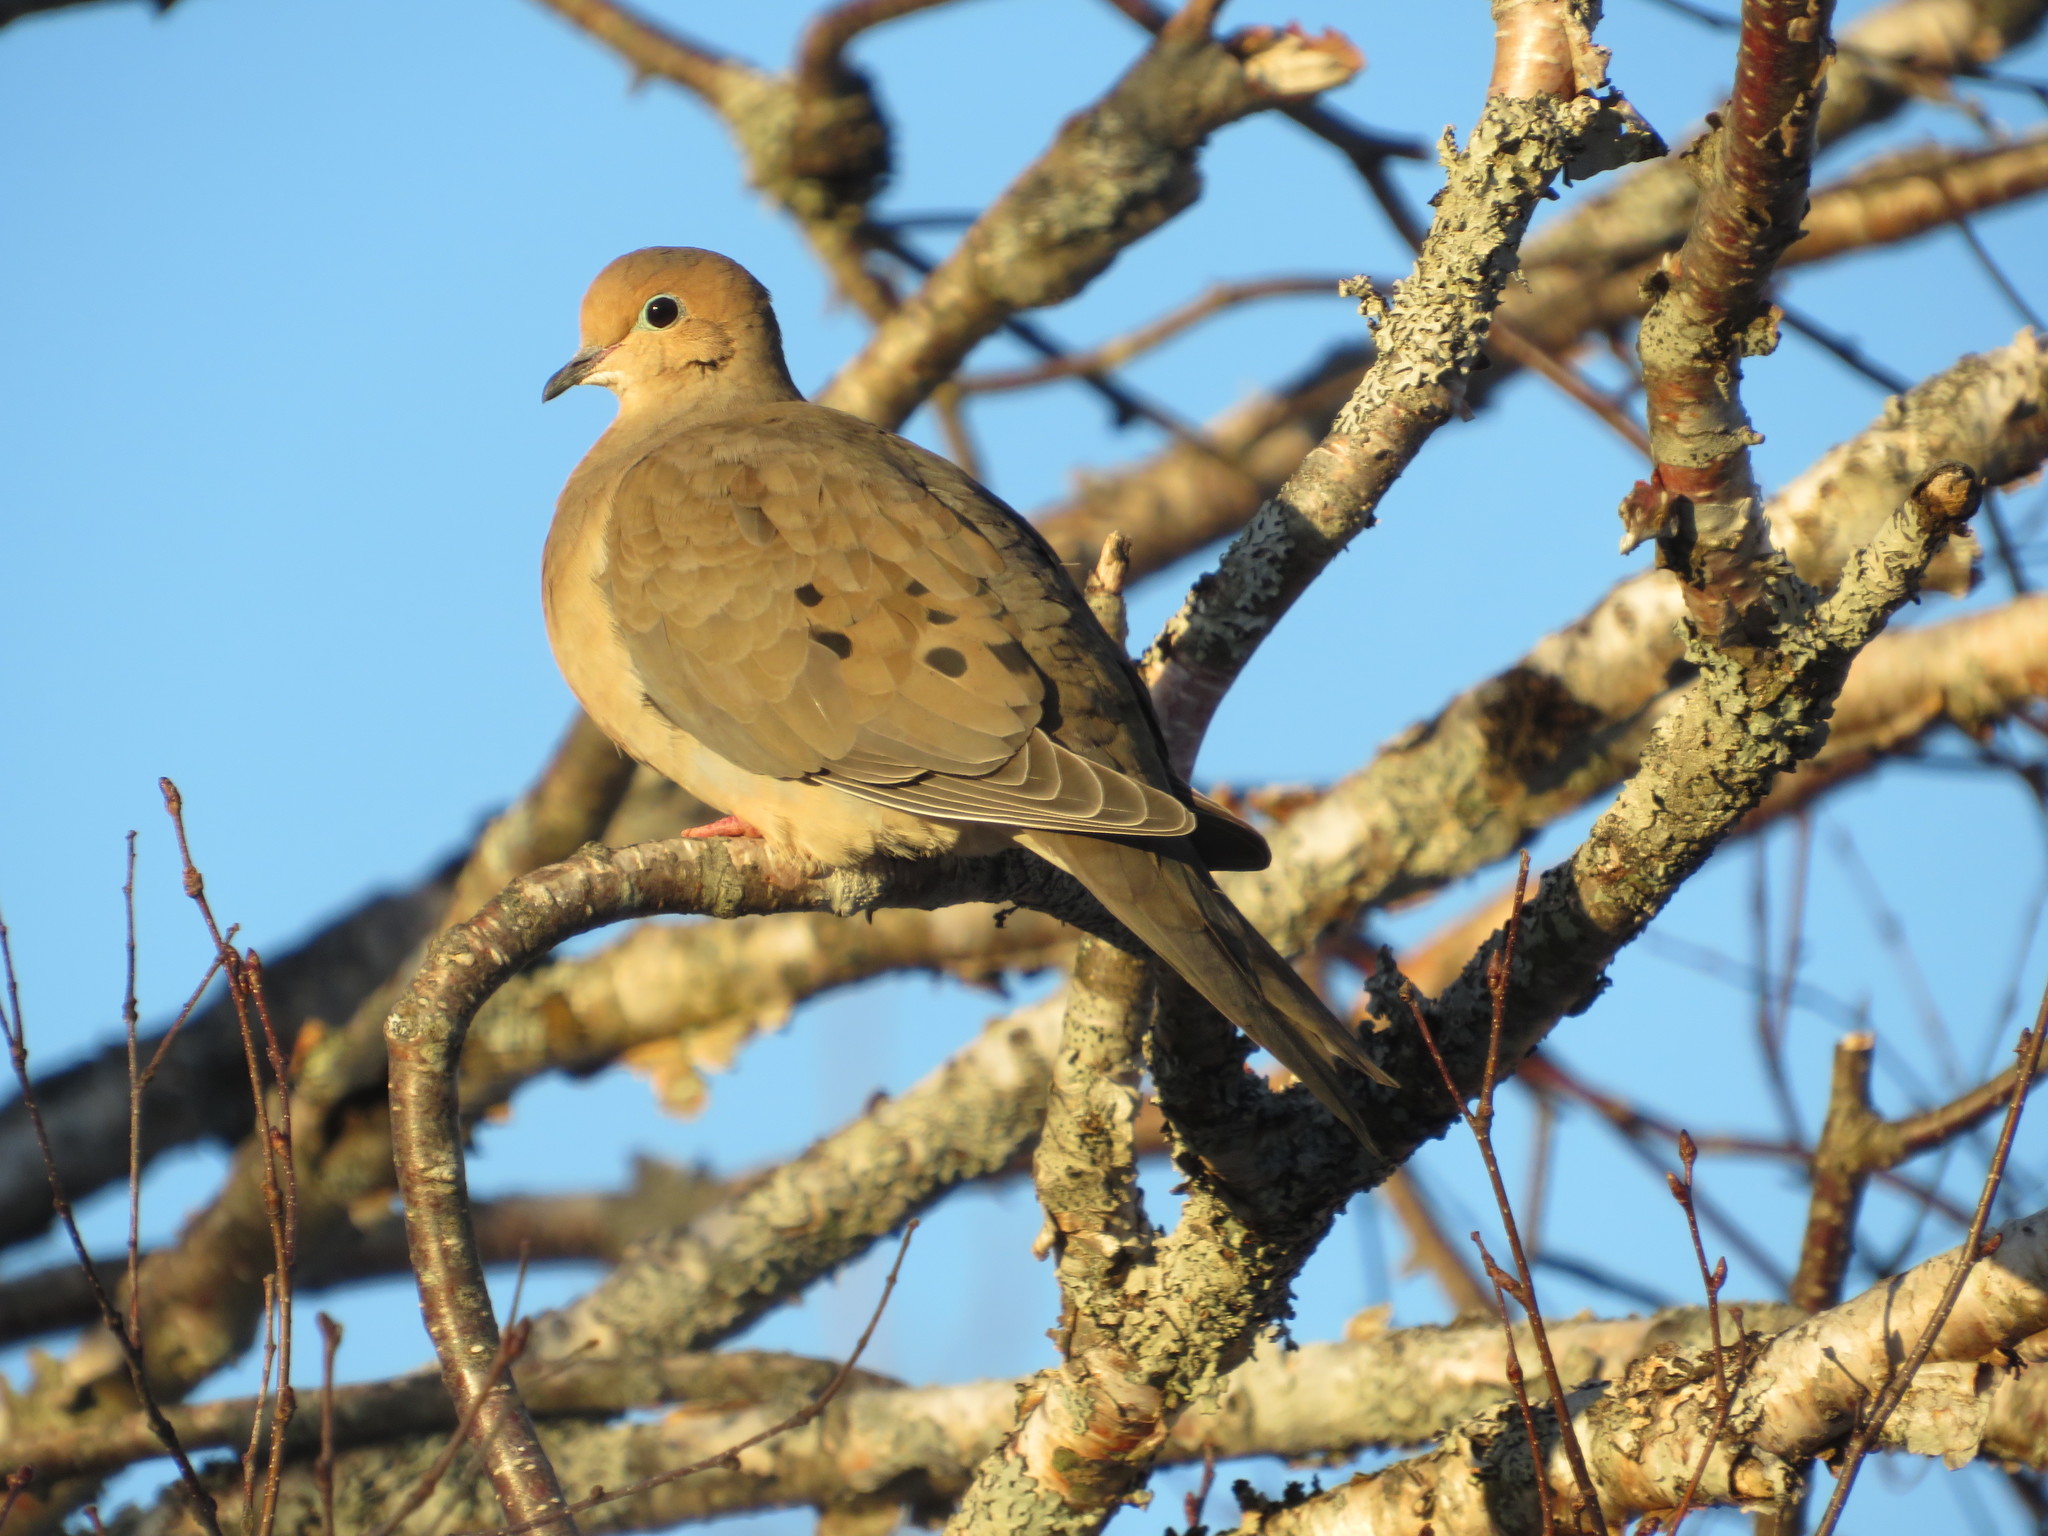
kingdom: Animalia
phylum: Chordata
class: Aves
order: Columbiformes
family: Columbidae
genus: Zenaida
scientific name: Zenaida macroura
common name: Mourning dove
